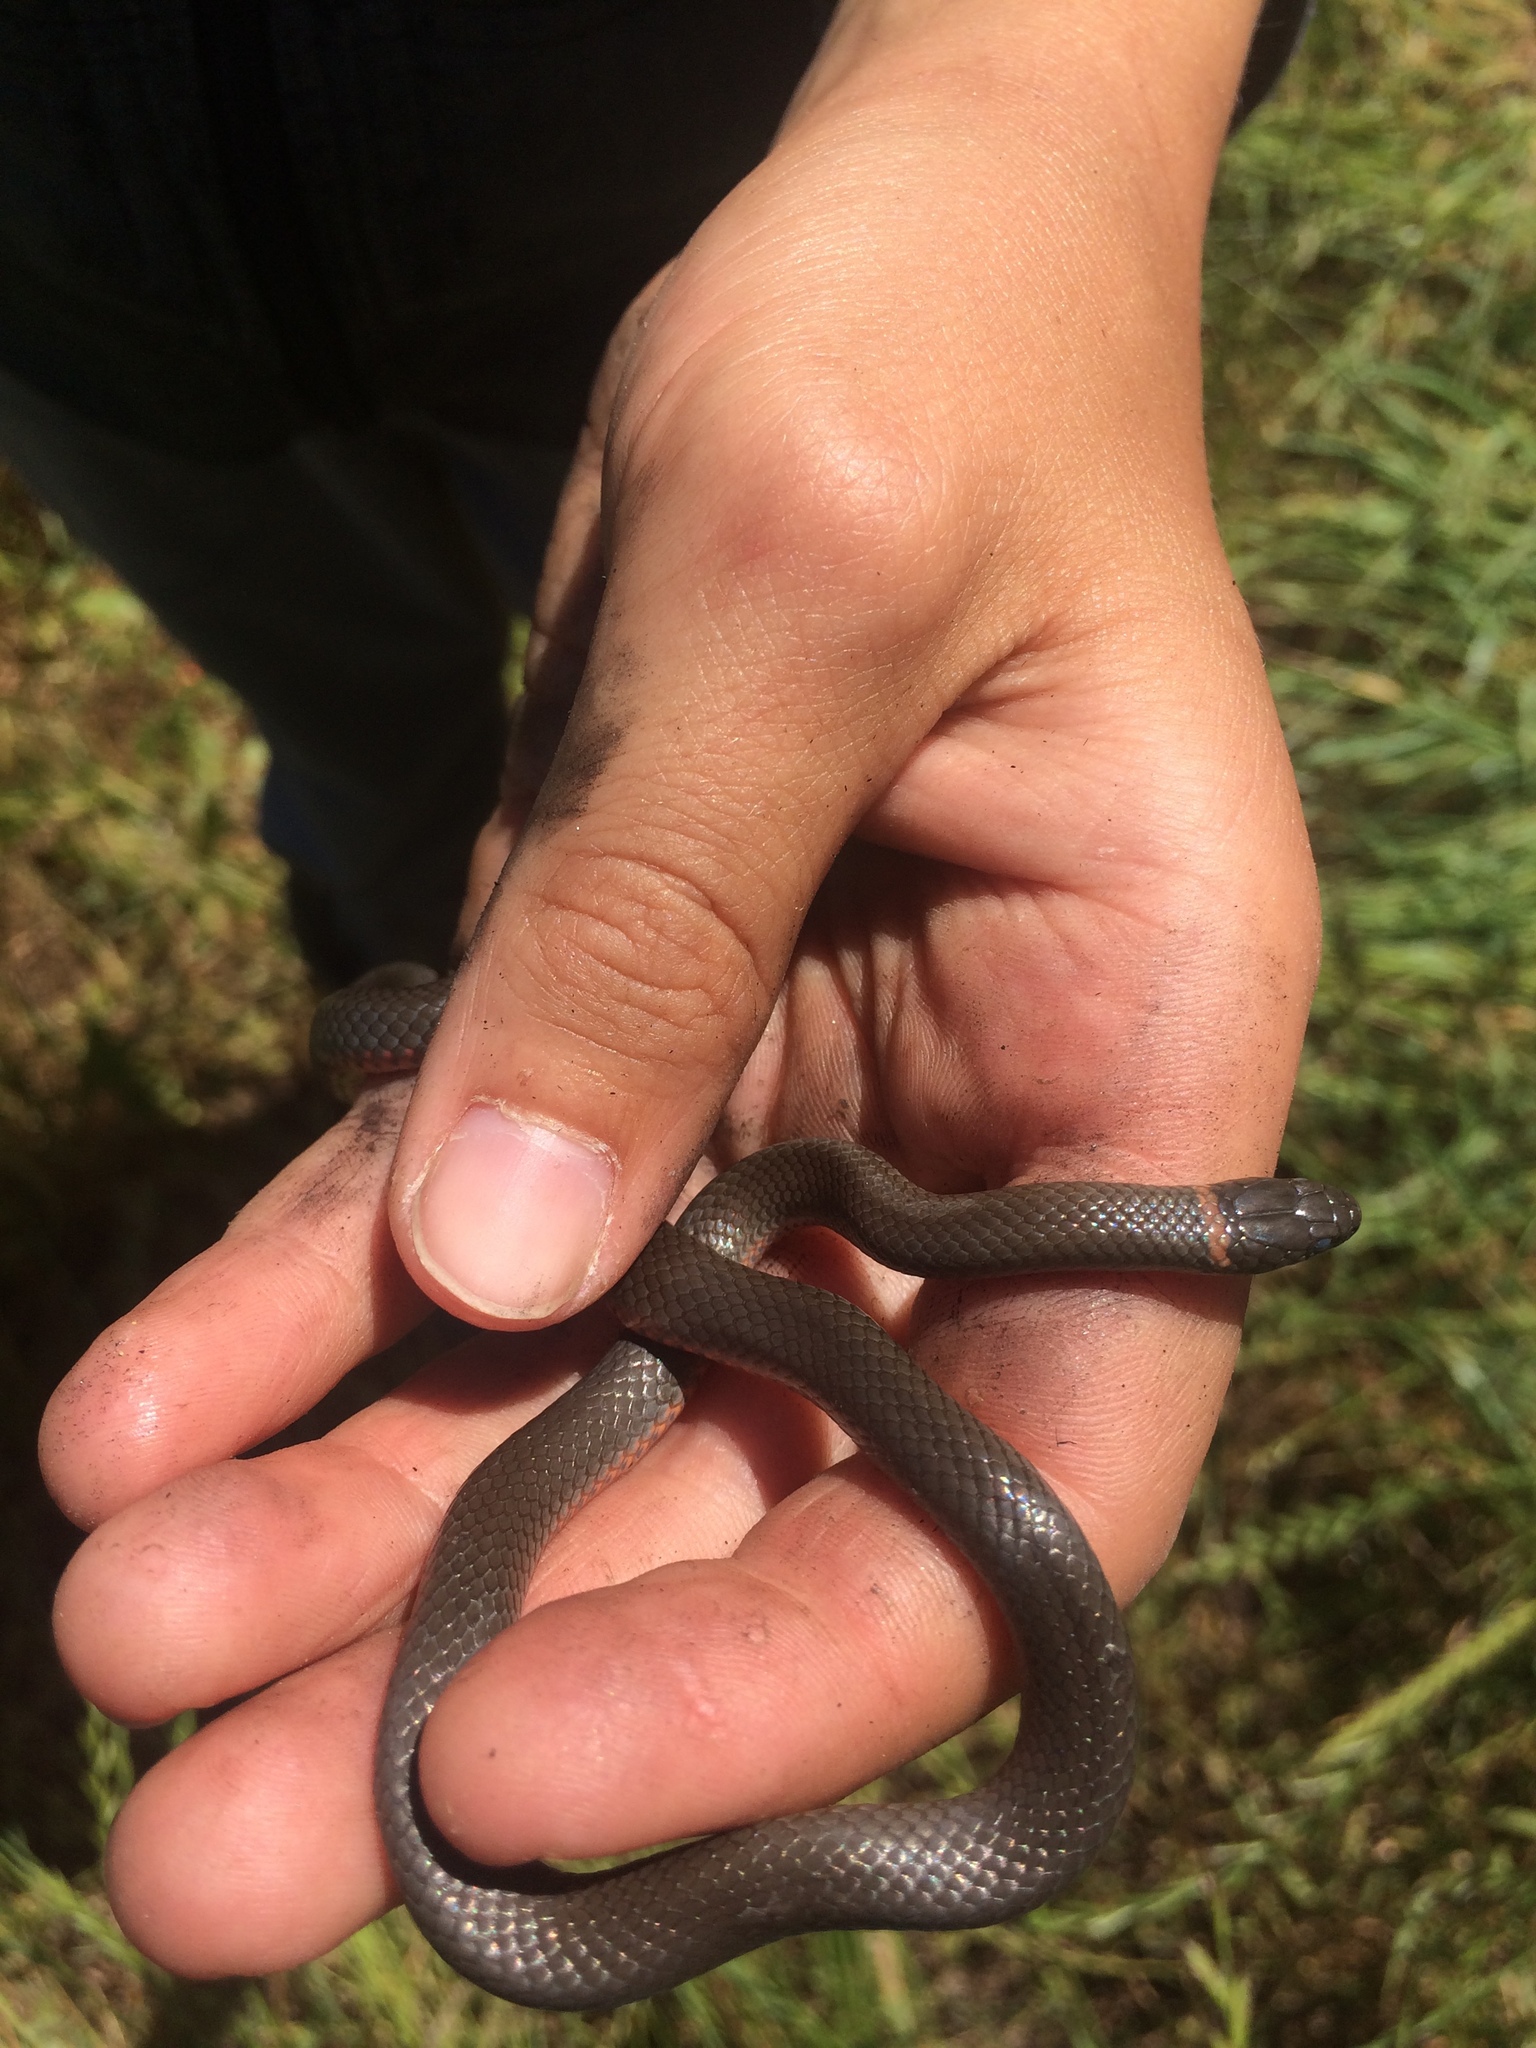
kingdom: Animalia
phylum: Chordata
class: Squamata
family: Colubridae
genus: Diadophis
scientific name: Diadophis punctatus
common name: Ringneck snake
